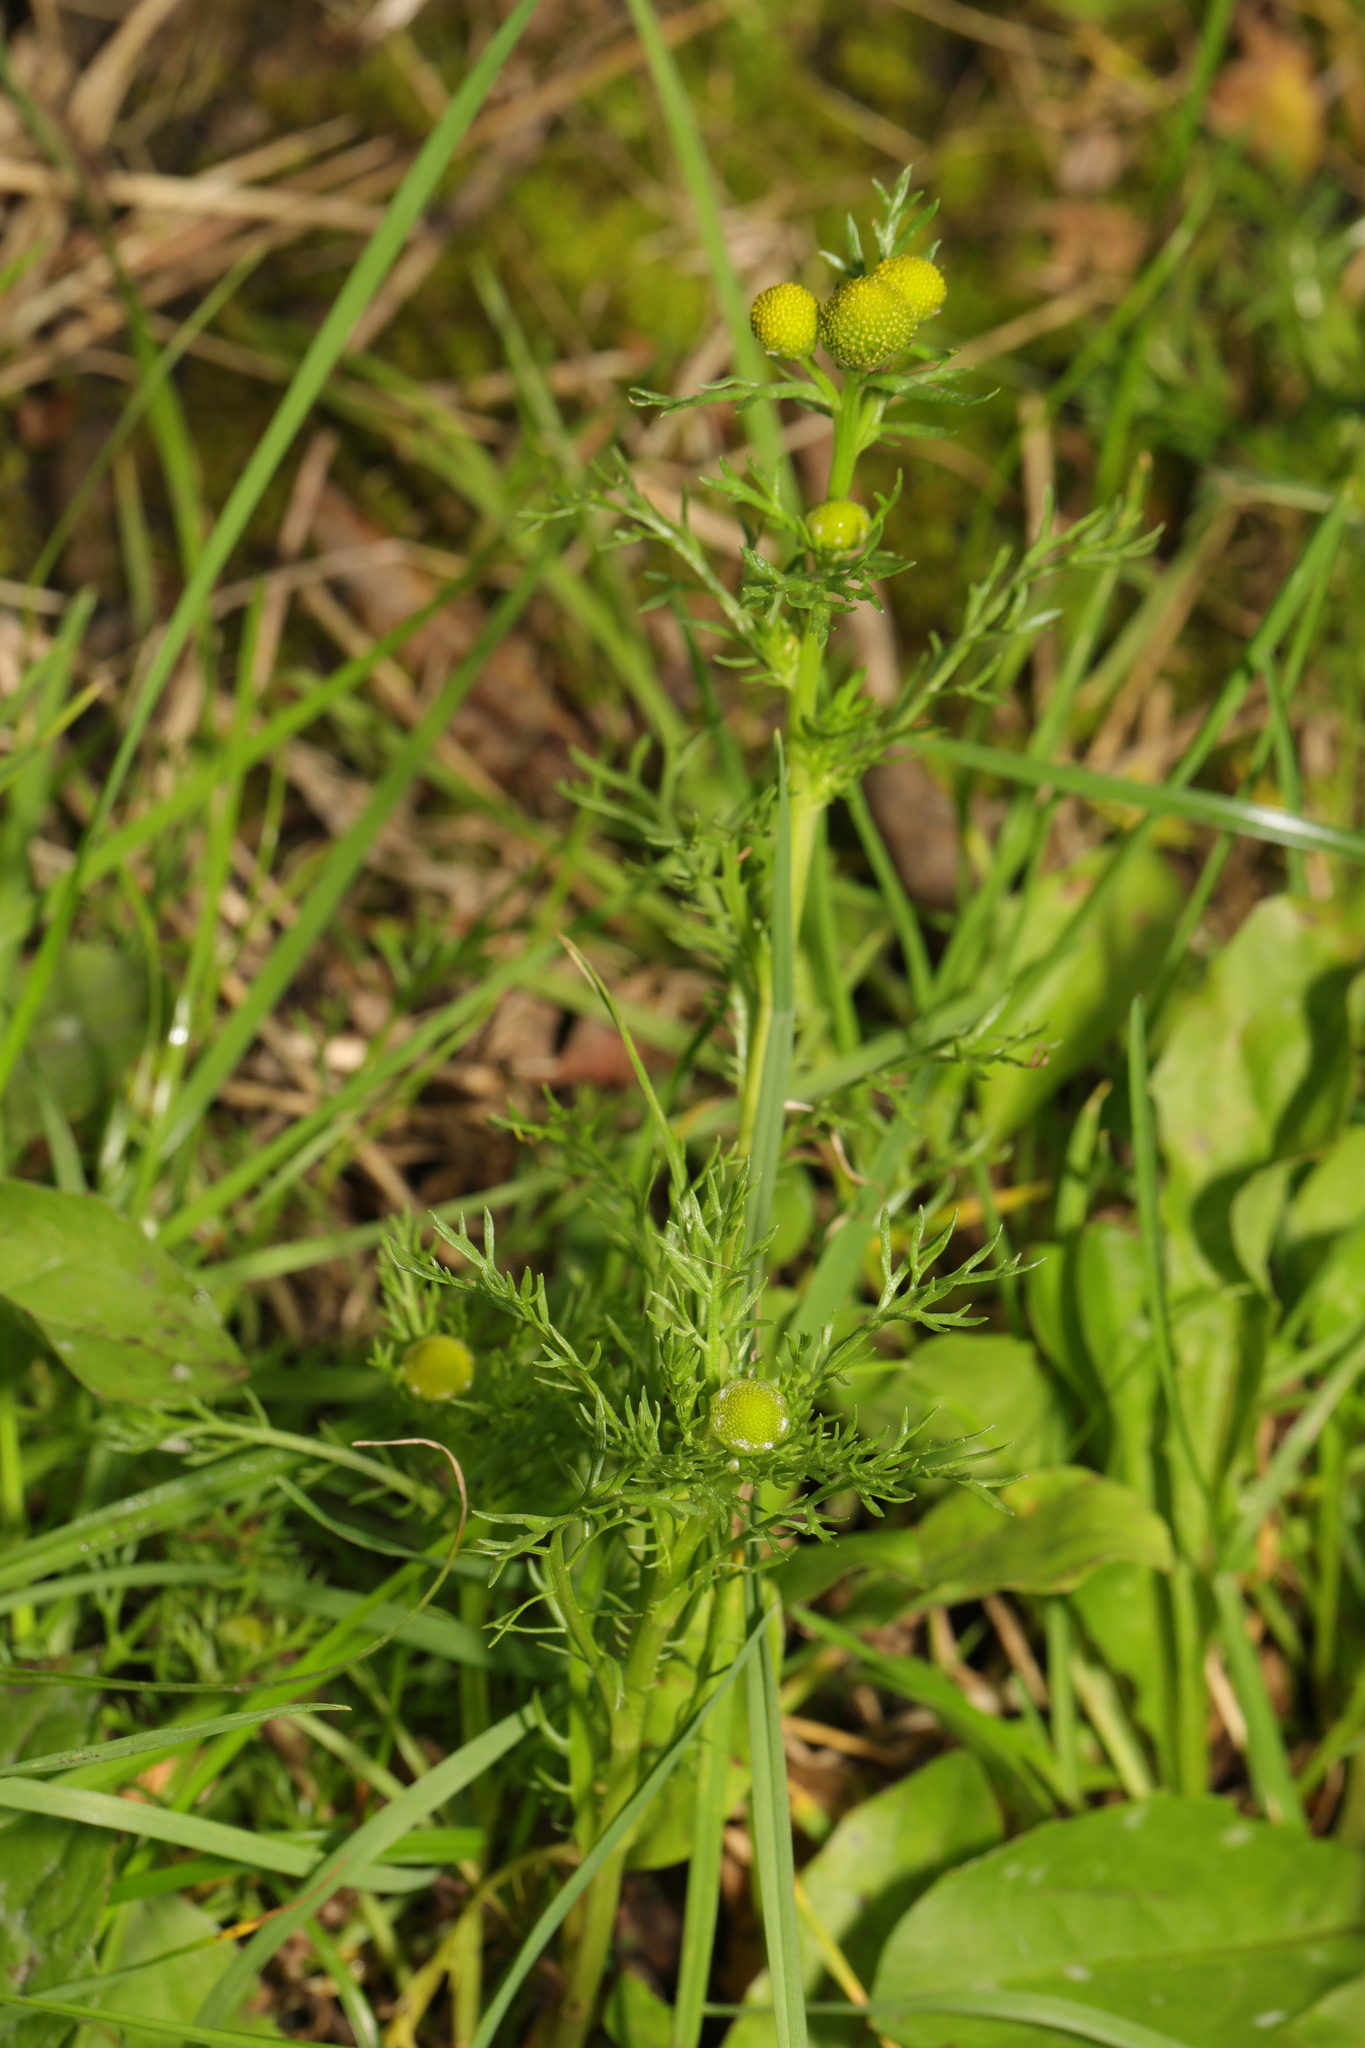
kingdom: Plantae
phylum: Tracheophyta
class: Magnoliopsida
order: Asterales
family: Asteraceae
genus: Matricaria
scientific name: Matricaria discoidea
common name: Disc mayweed
